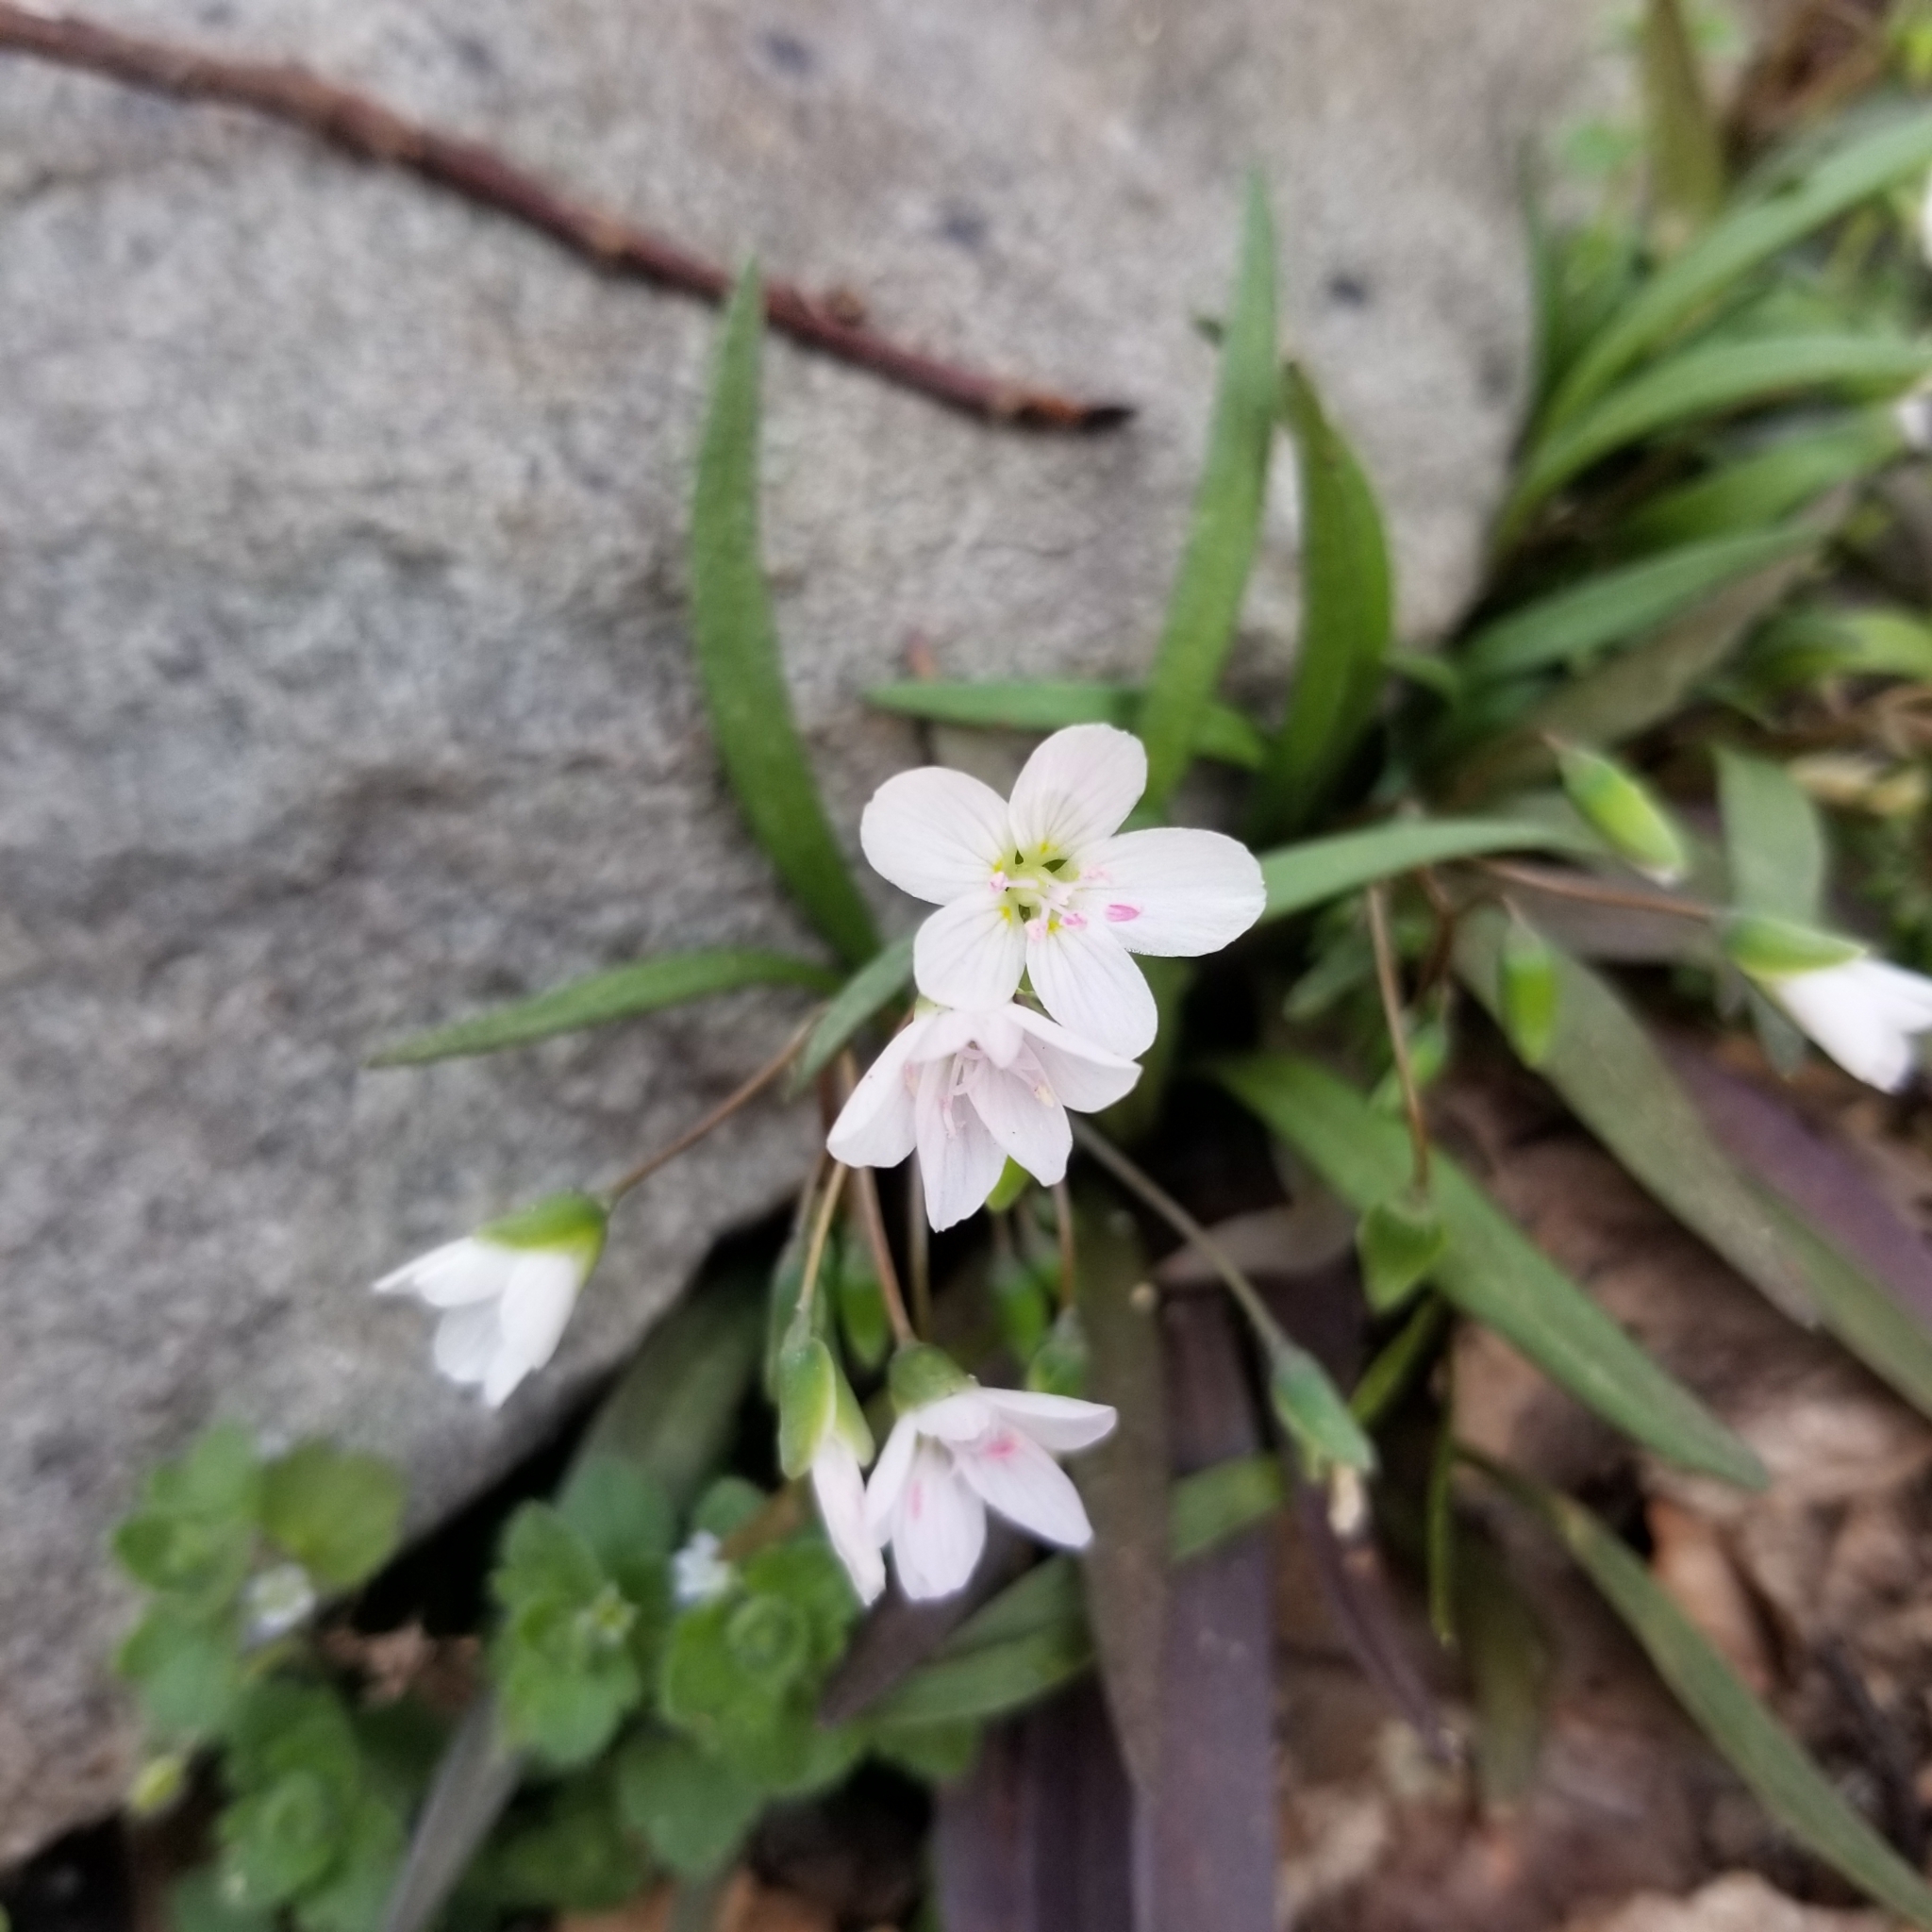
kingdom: Plantae
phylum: Tracheophyta
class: Magnoliopsida
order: Caryophyllales
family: Montiaceae
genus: Claytonia
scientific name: Claytonia virginica
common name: Virginia springbeauty
